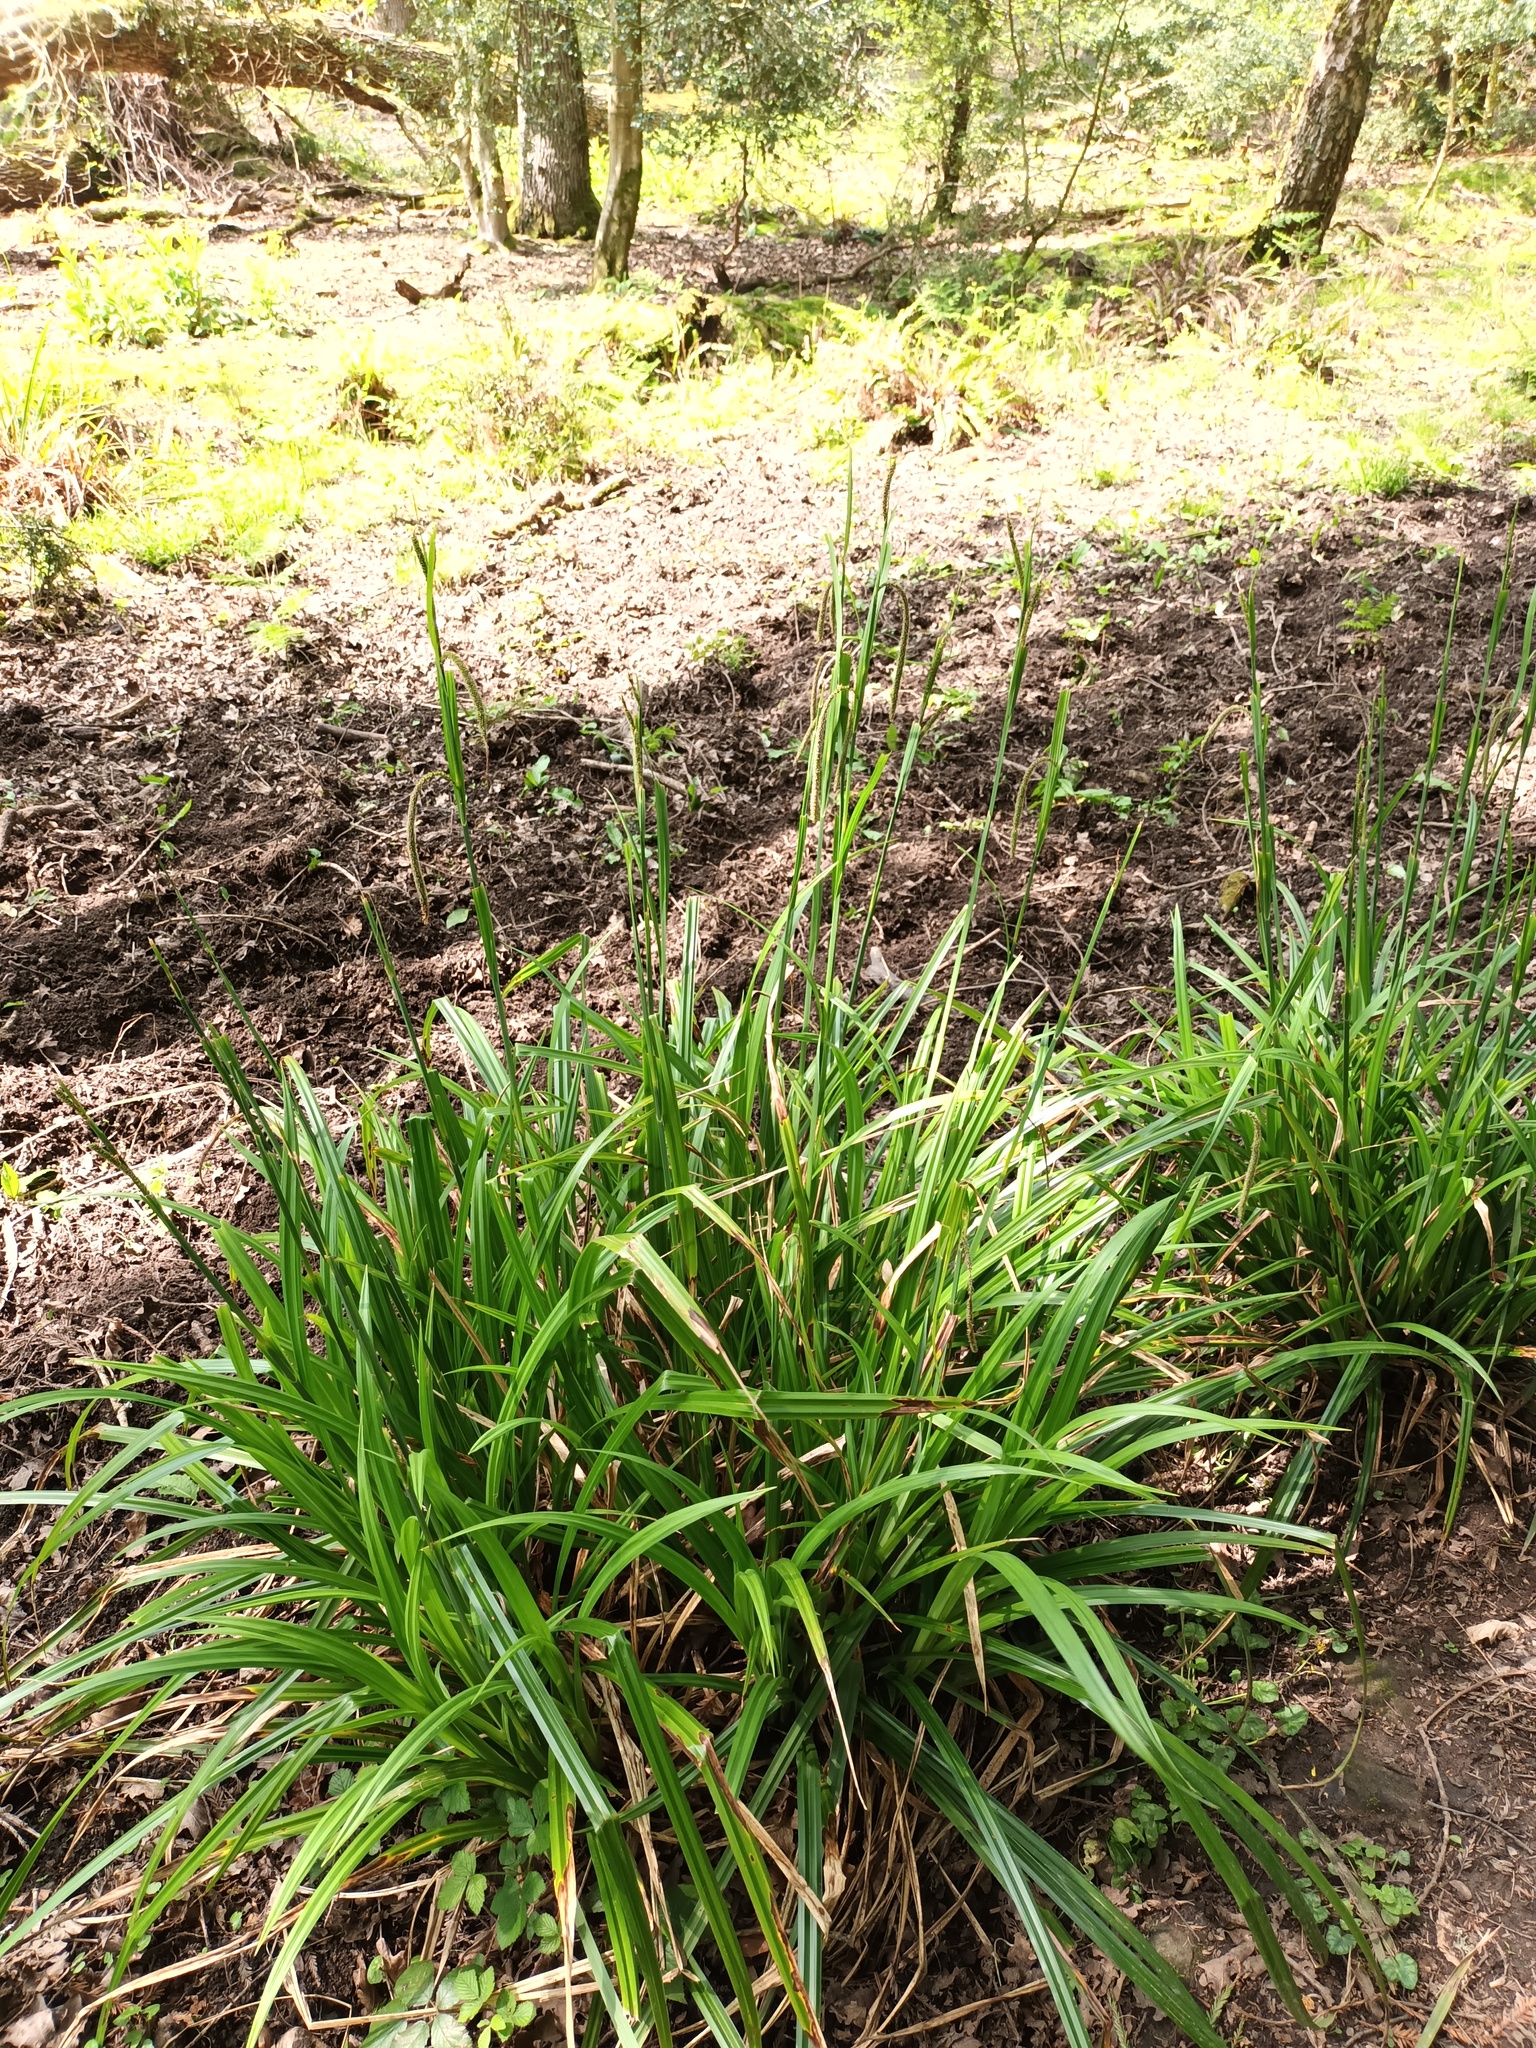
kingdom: Plantae
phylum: Tracheophyta
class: Liliopsida
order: Poales
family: Cyperaceae
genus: Carex
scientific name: Carex pendula
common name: Pendulous sedge
